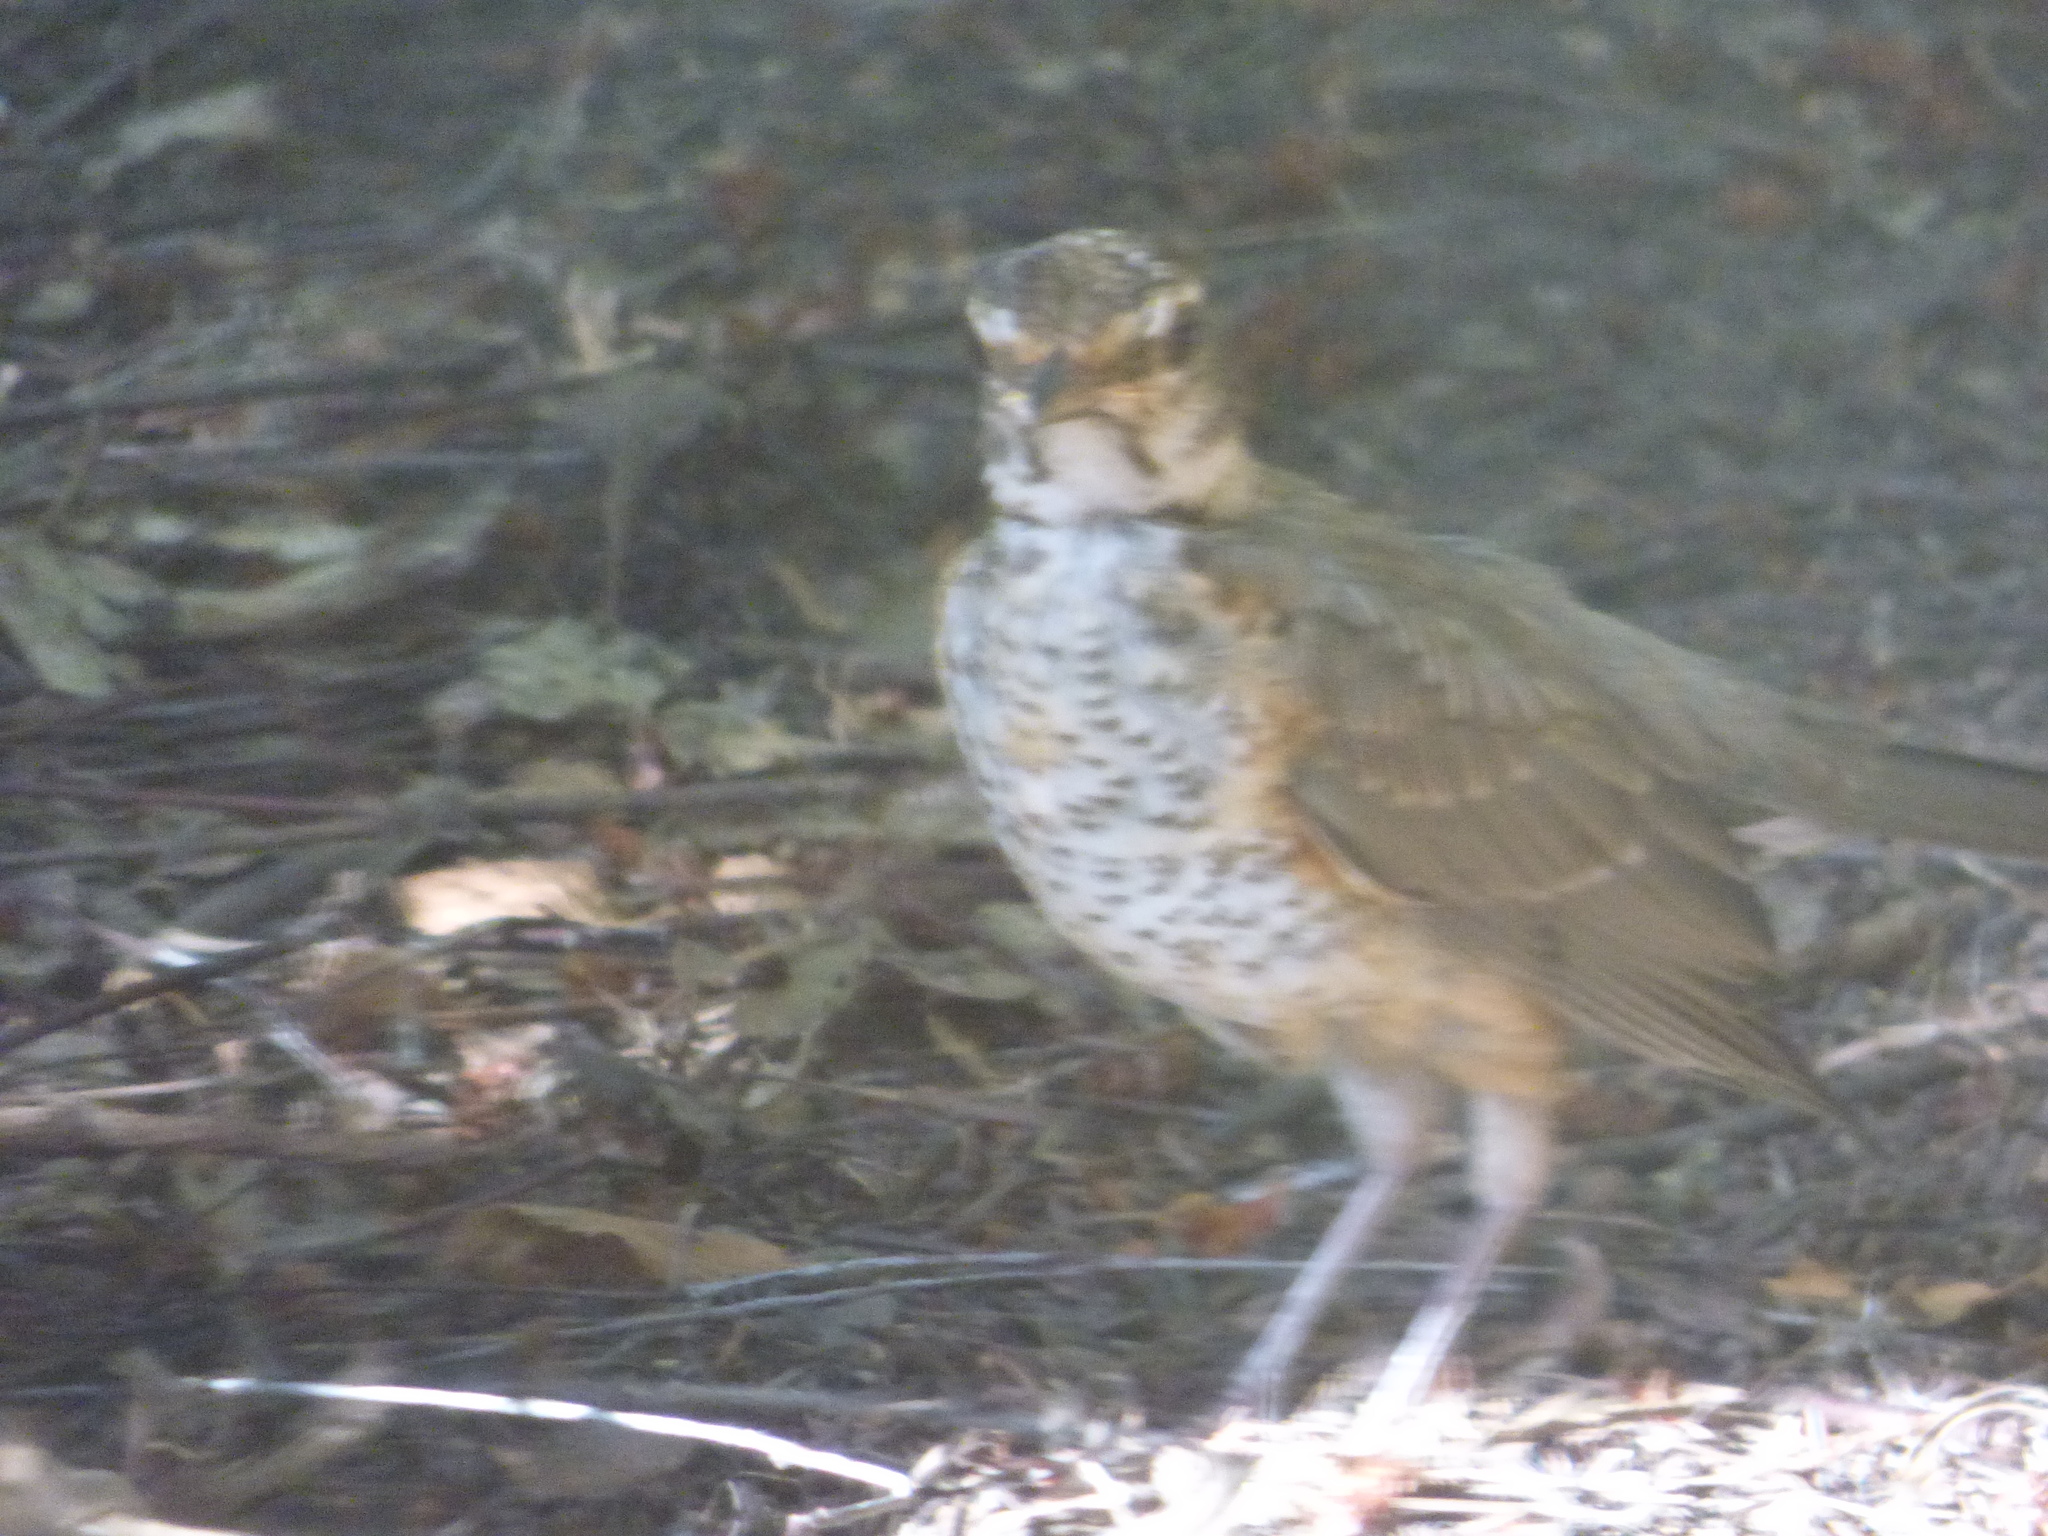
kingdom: Animalia
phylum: Chordata
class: Aves
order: Passeriformes
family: Turdidae
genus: Turdus
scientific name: Turdus migratorius
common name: American robin
